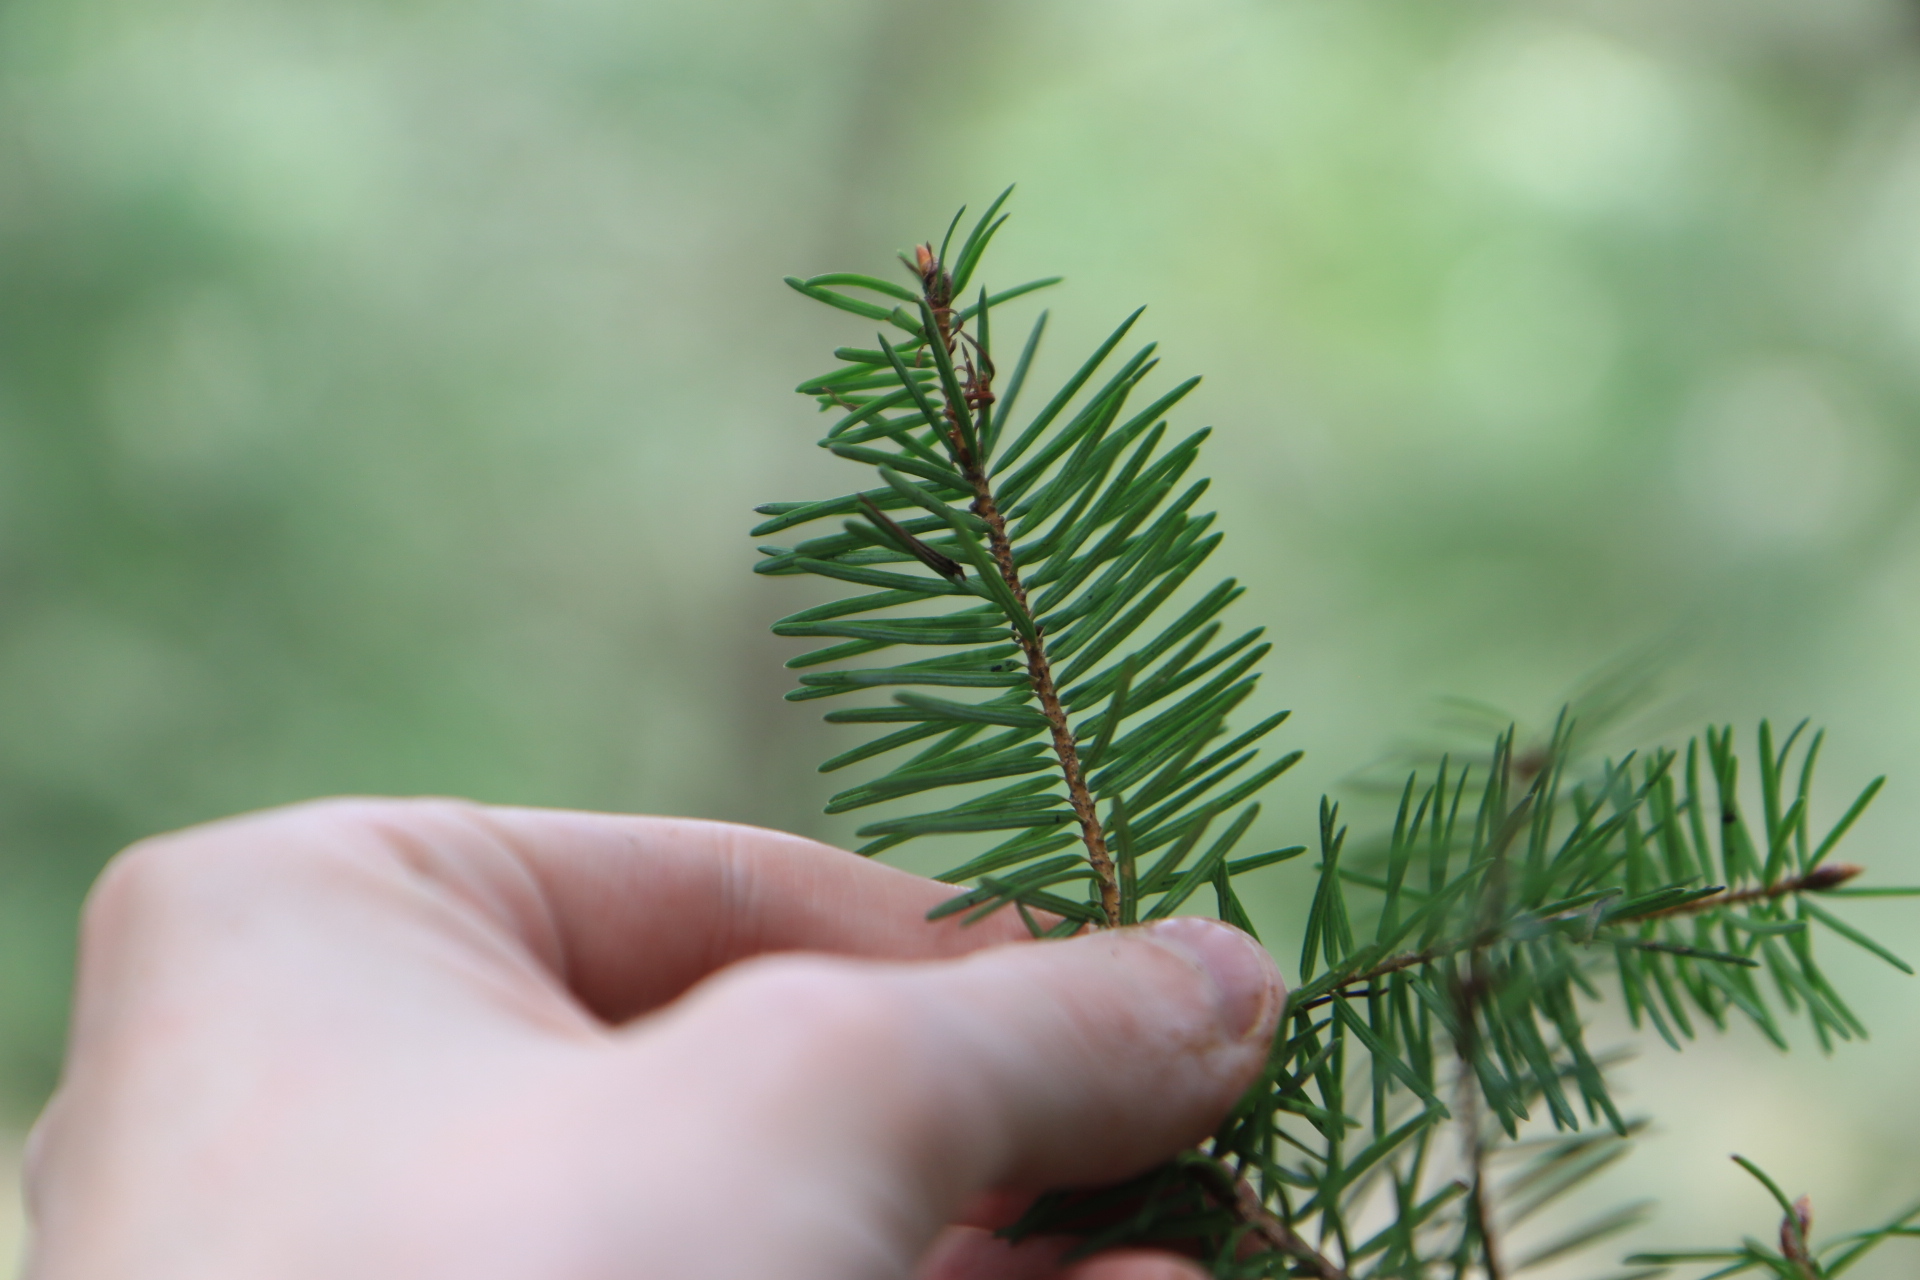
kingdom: Plantae
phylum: Tracheophyta
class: Pinopsida
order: Pinales
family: Pinaceae
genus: Pseudotsuga
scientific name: Pseudotsuga menziesii
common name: Douglas fir
